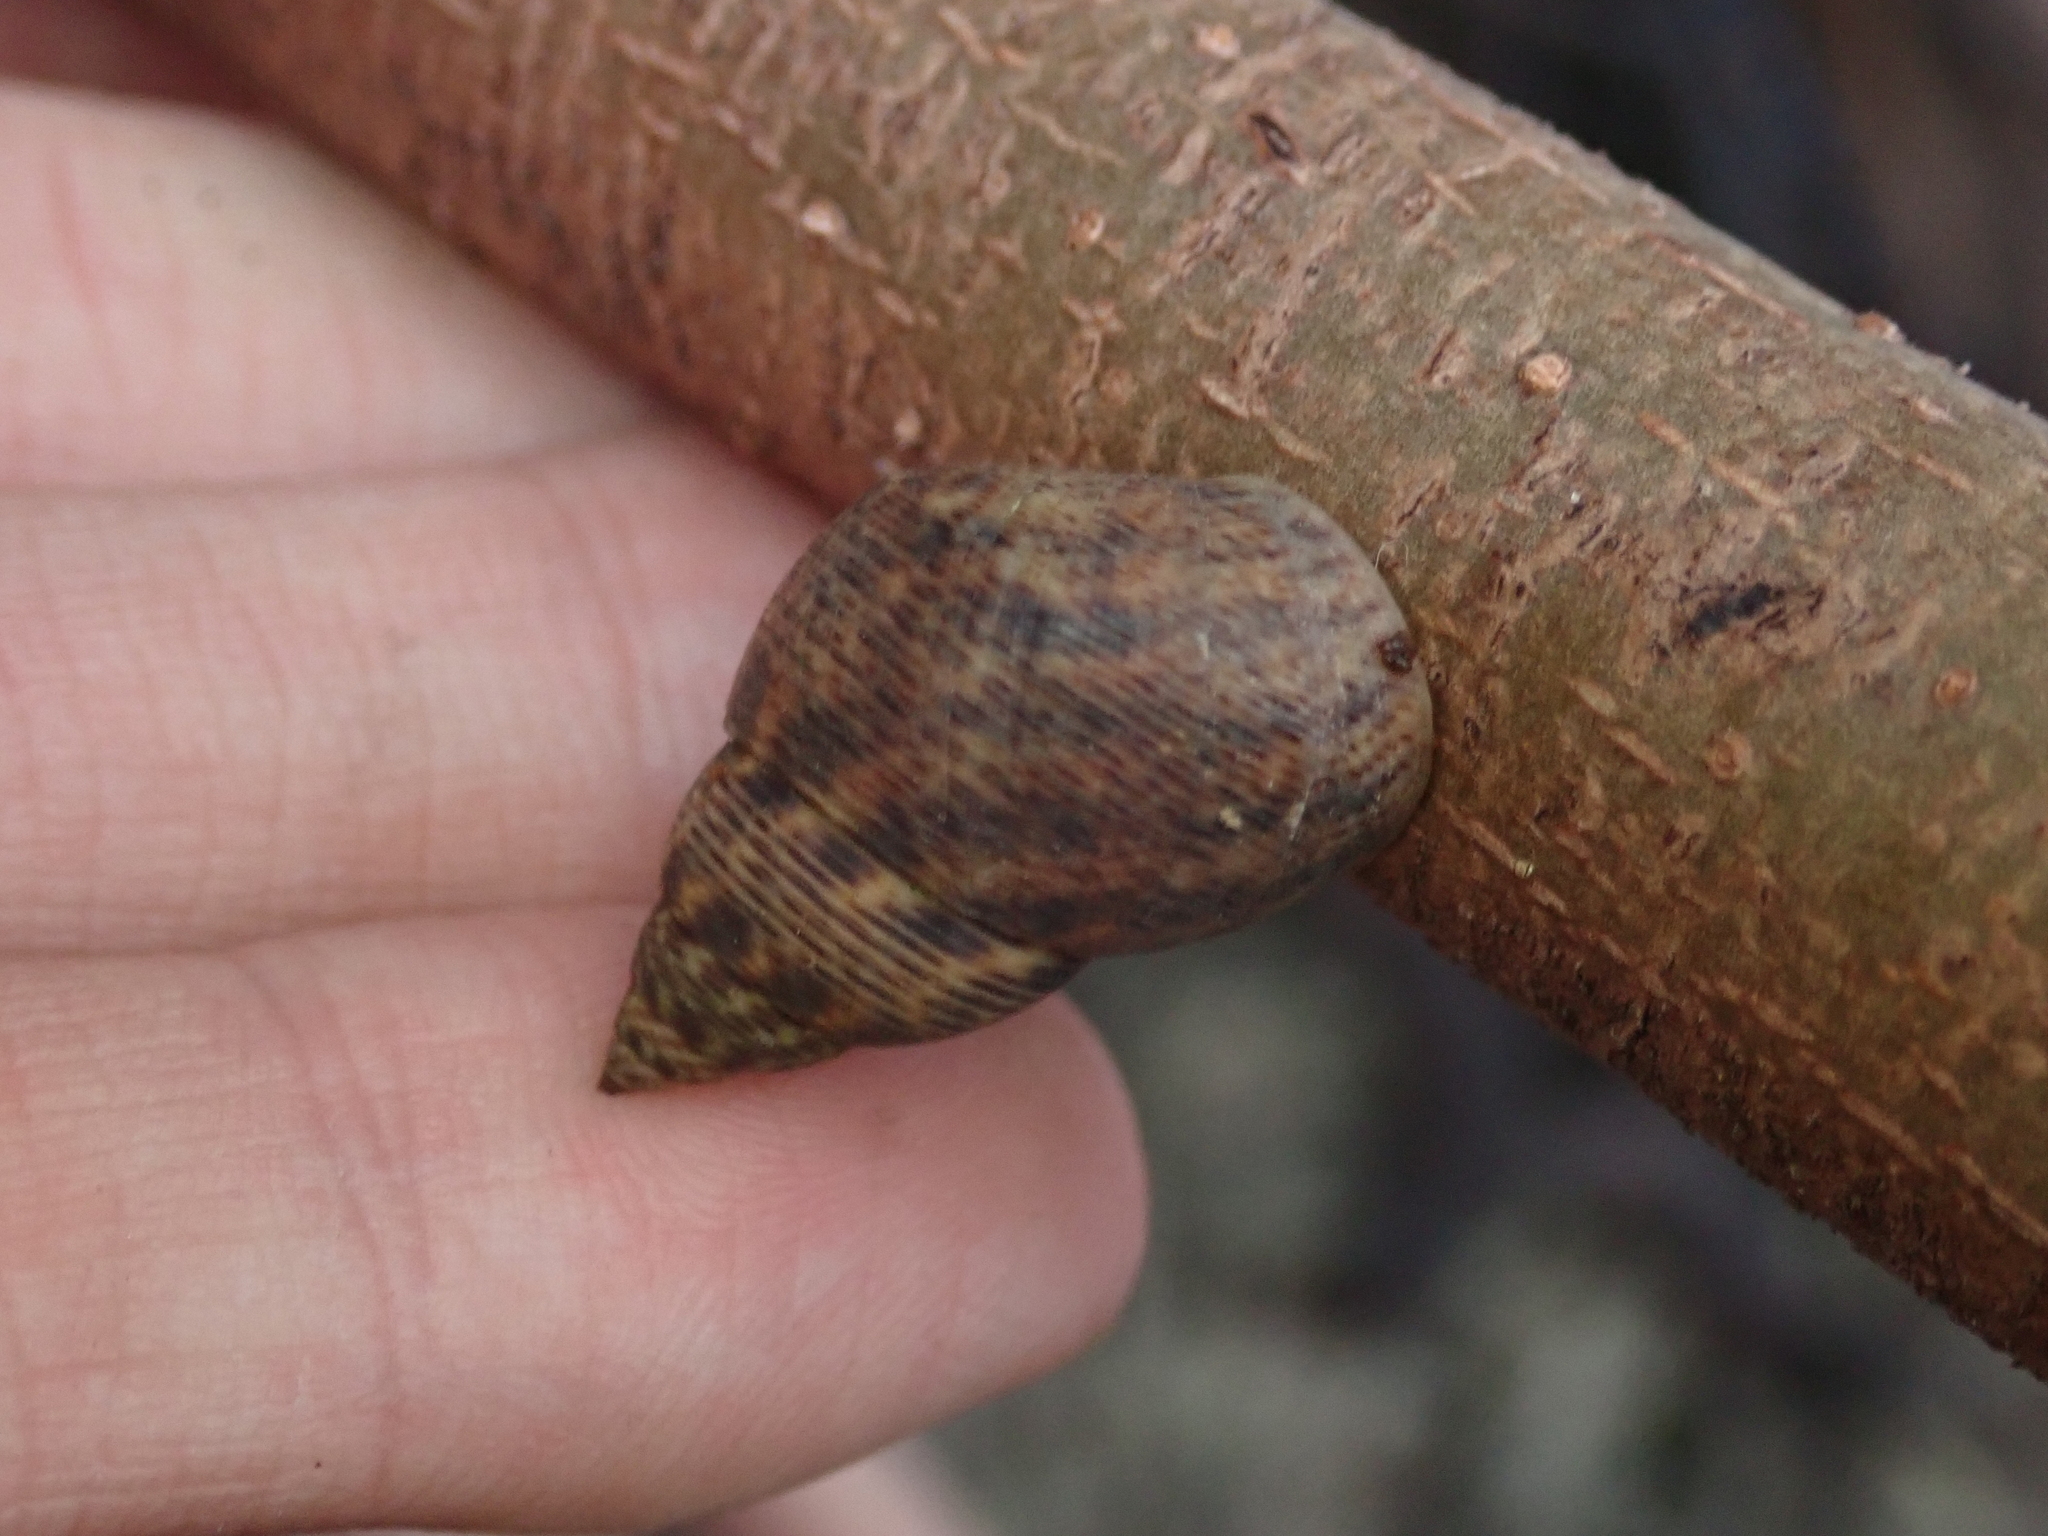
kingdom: Animalia
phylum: Mollusca
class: Gastropoda
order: Littorinimorpha
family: Littorinidae
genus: Littoraria
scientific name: Littoraria angulifera
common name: Mangrove periwinkle
